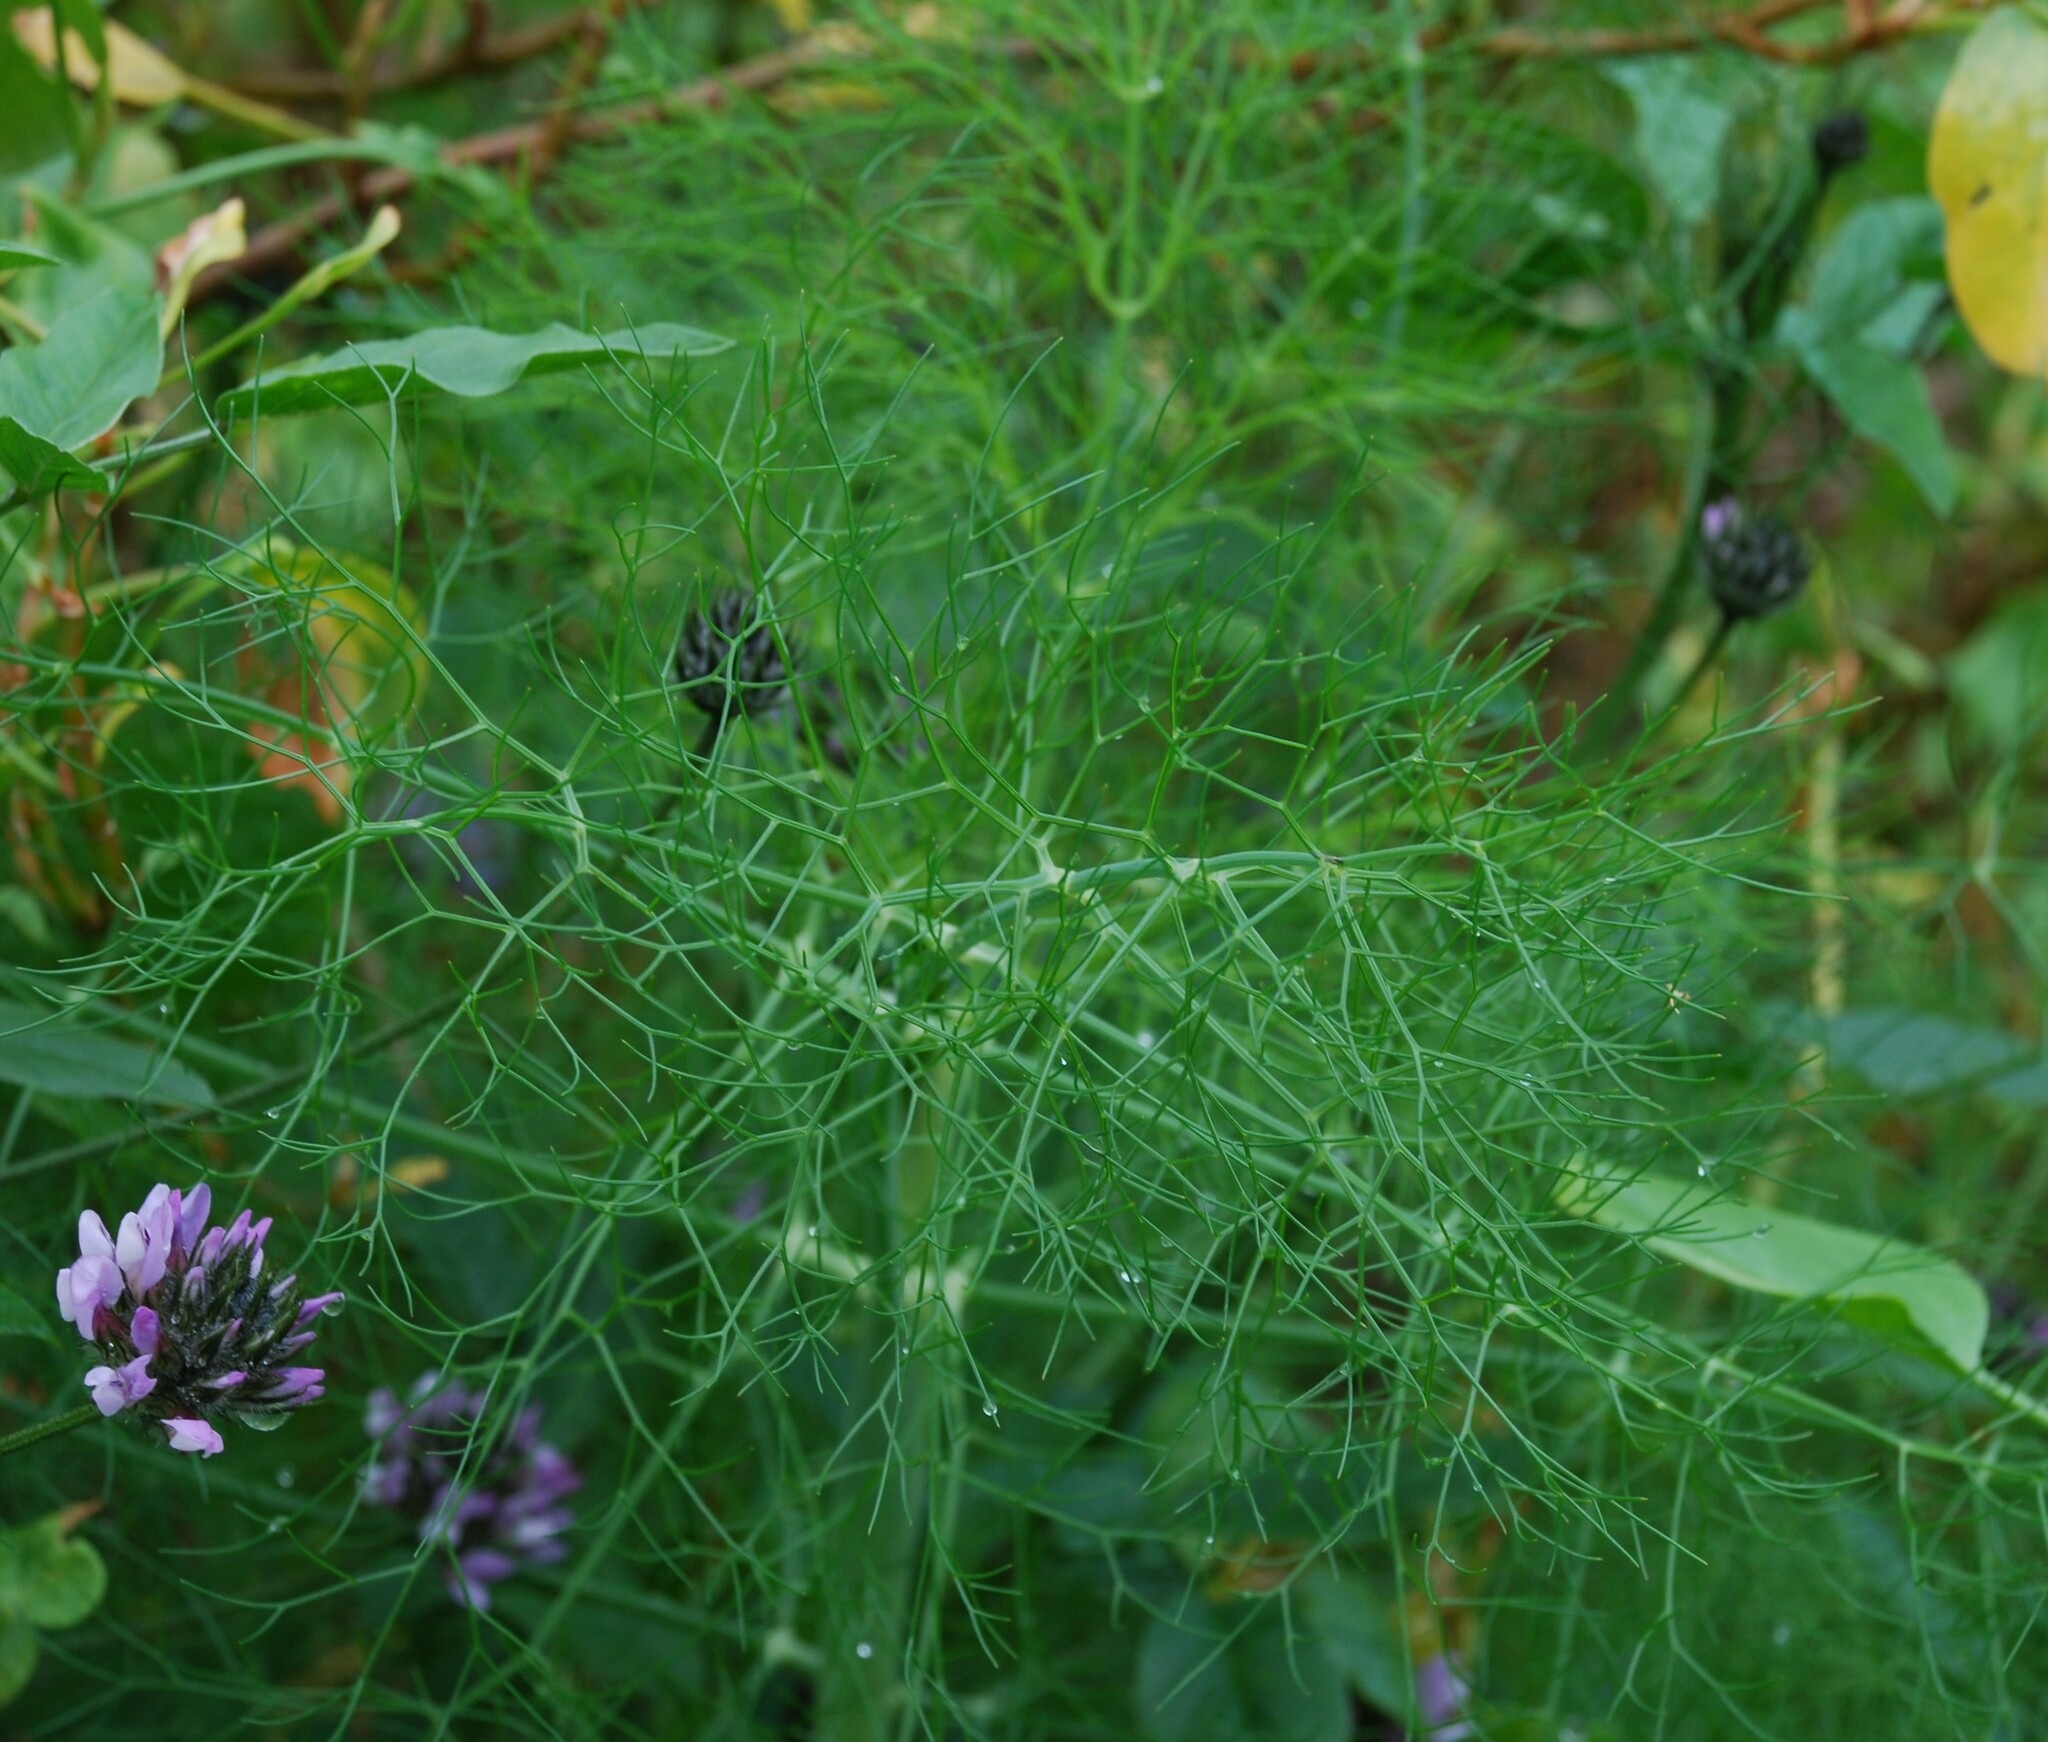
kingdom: Plantae
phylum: Tracheophyta
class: Magnoliopsida
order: Apiales
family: Apiaceae
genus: Foeniculum
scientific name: Foeniculum vulgare
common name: Fennel
